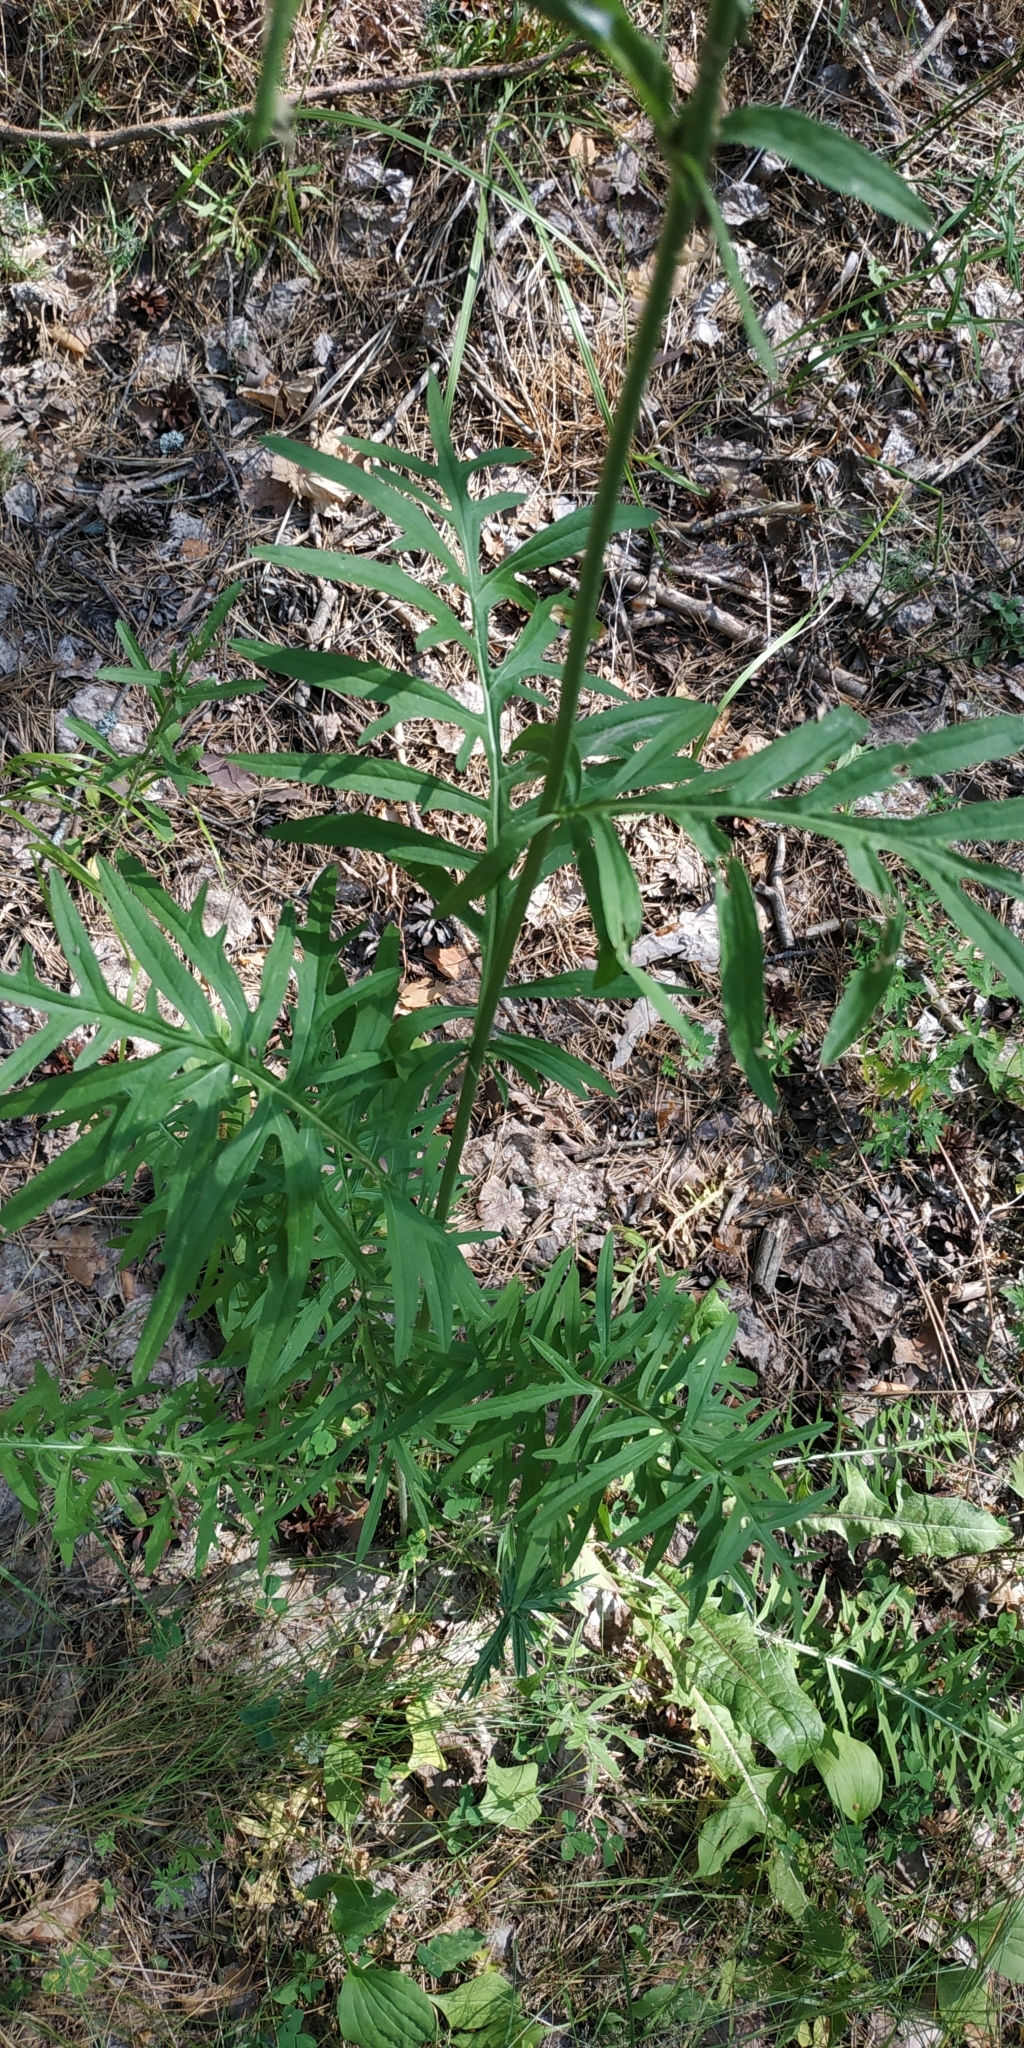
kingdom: Plantae
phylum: Tracheophyta
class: Magnoliopsida
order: Asterales
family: Asteraceae
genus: Centaurea
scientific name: Centaurea scabiosa
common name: Greater knapweed
